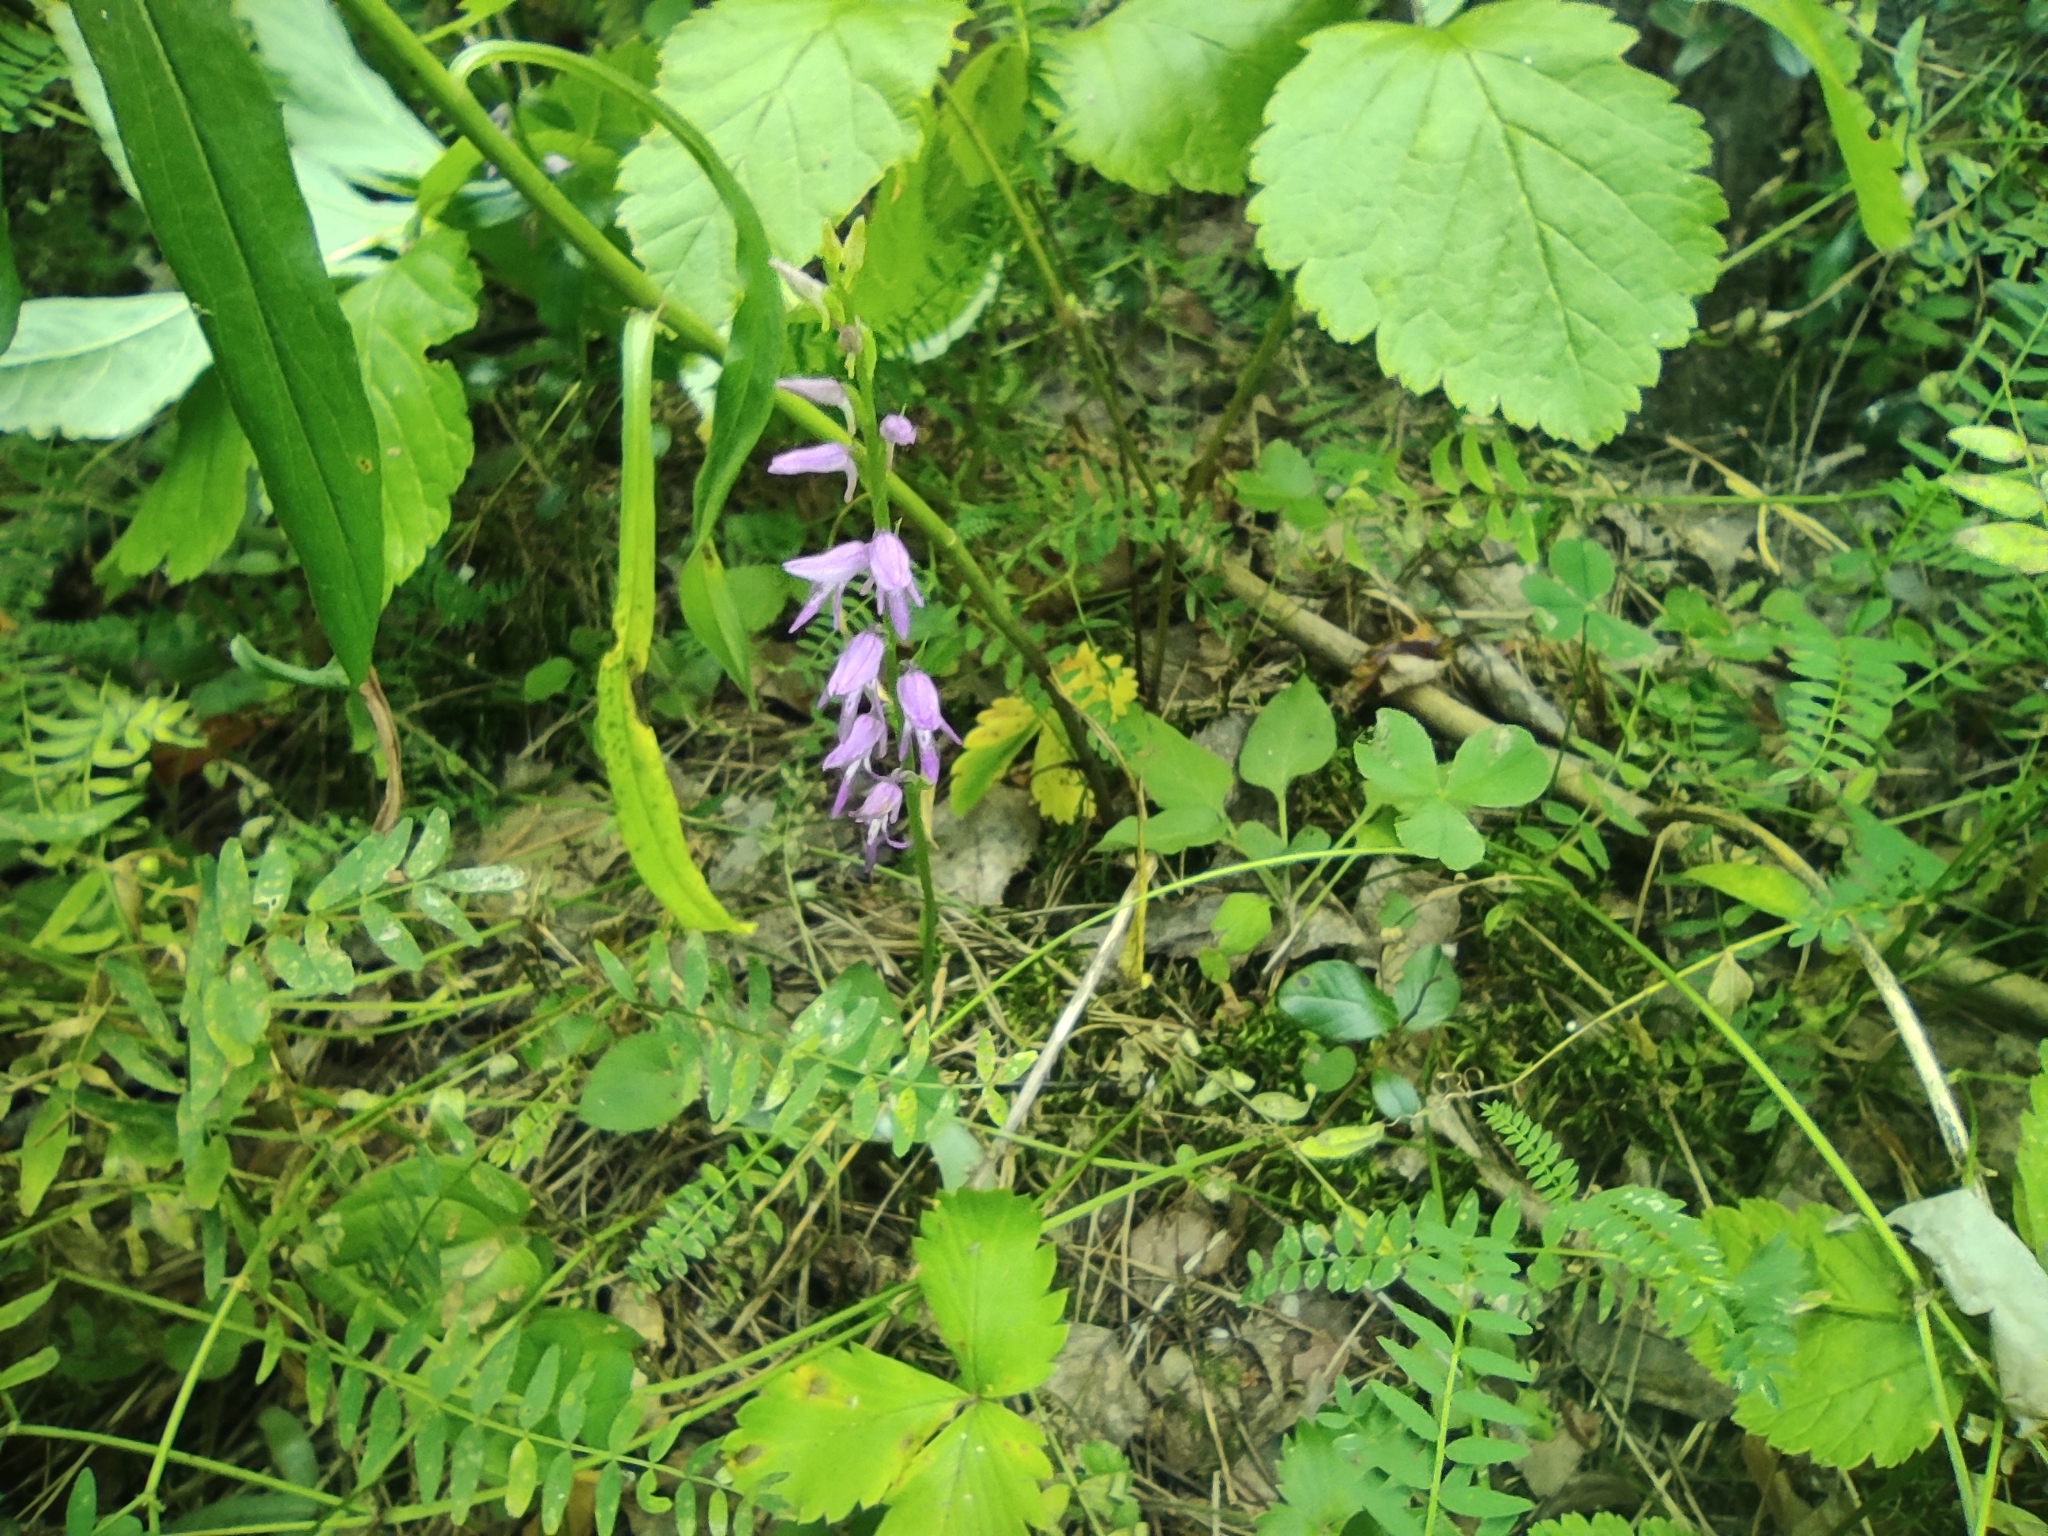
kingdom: Plantae
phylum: Tracheophyta
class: Liliopsida
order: Asparagales
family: Orchidaceae
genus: Hemipilia
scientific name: Hemipilia cucullata
